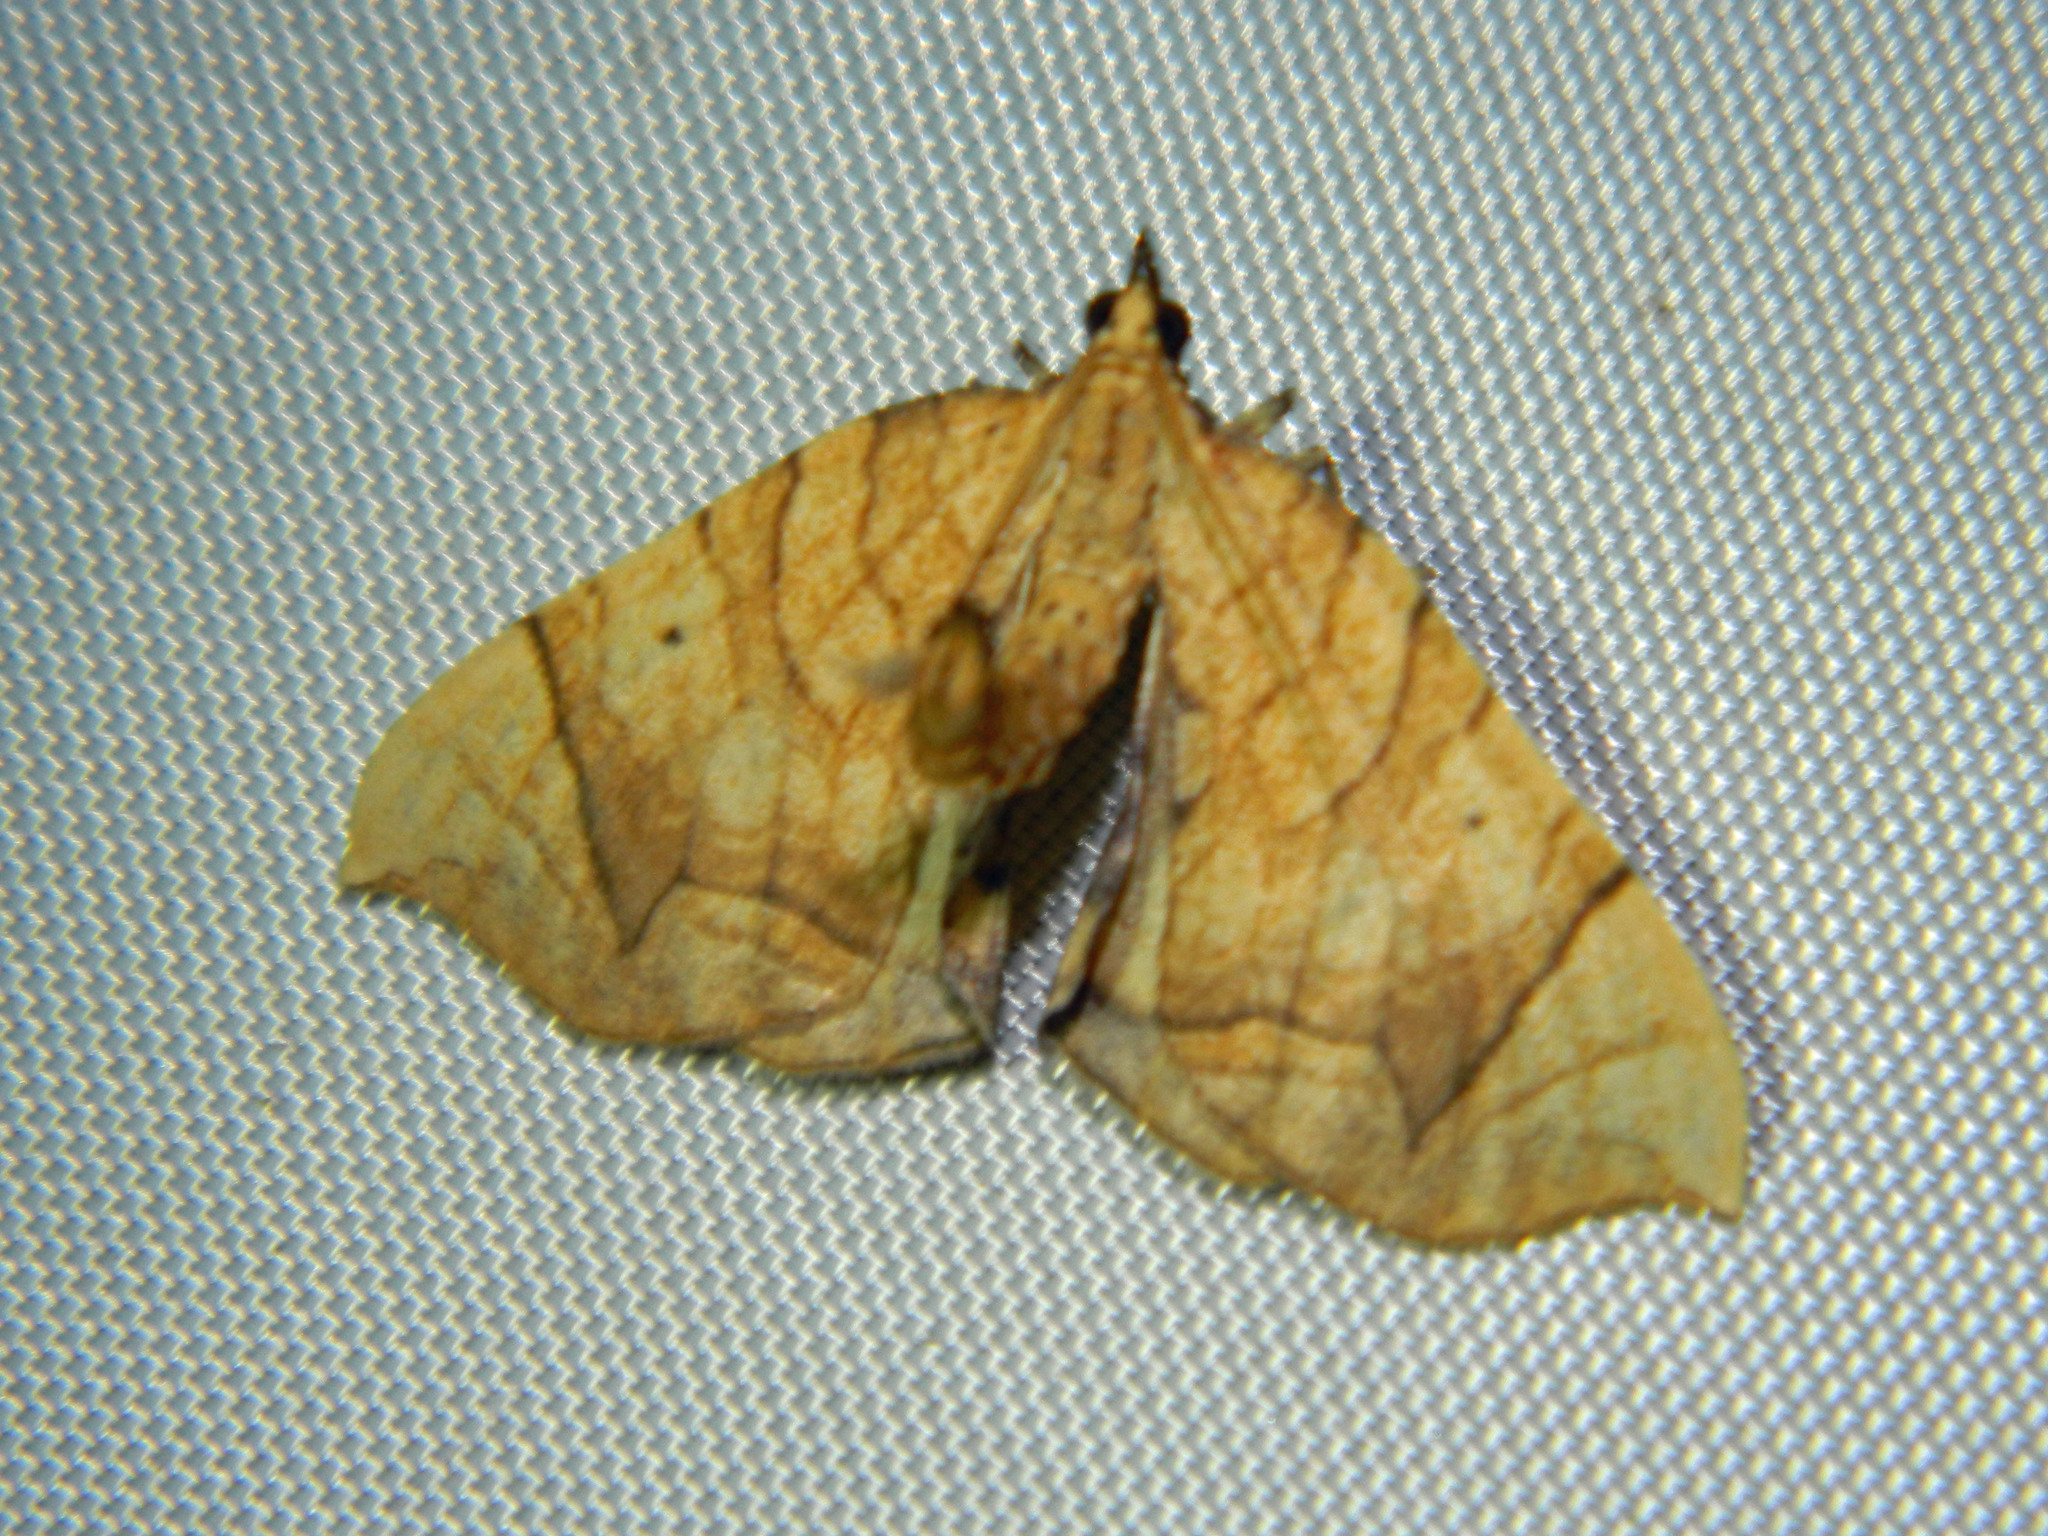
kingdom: Animalia
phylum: Arthropoda
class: Insecta
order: Lepidoptera
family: Geometridae
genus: Eulithis
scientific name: Eulithis
